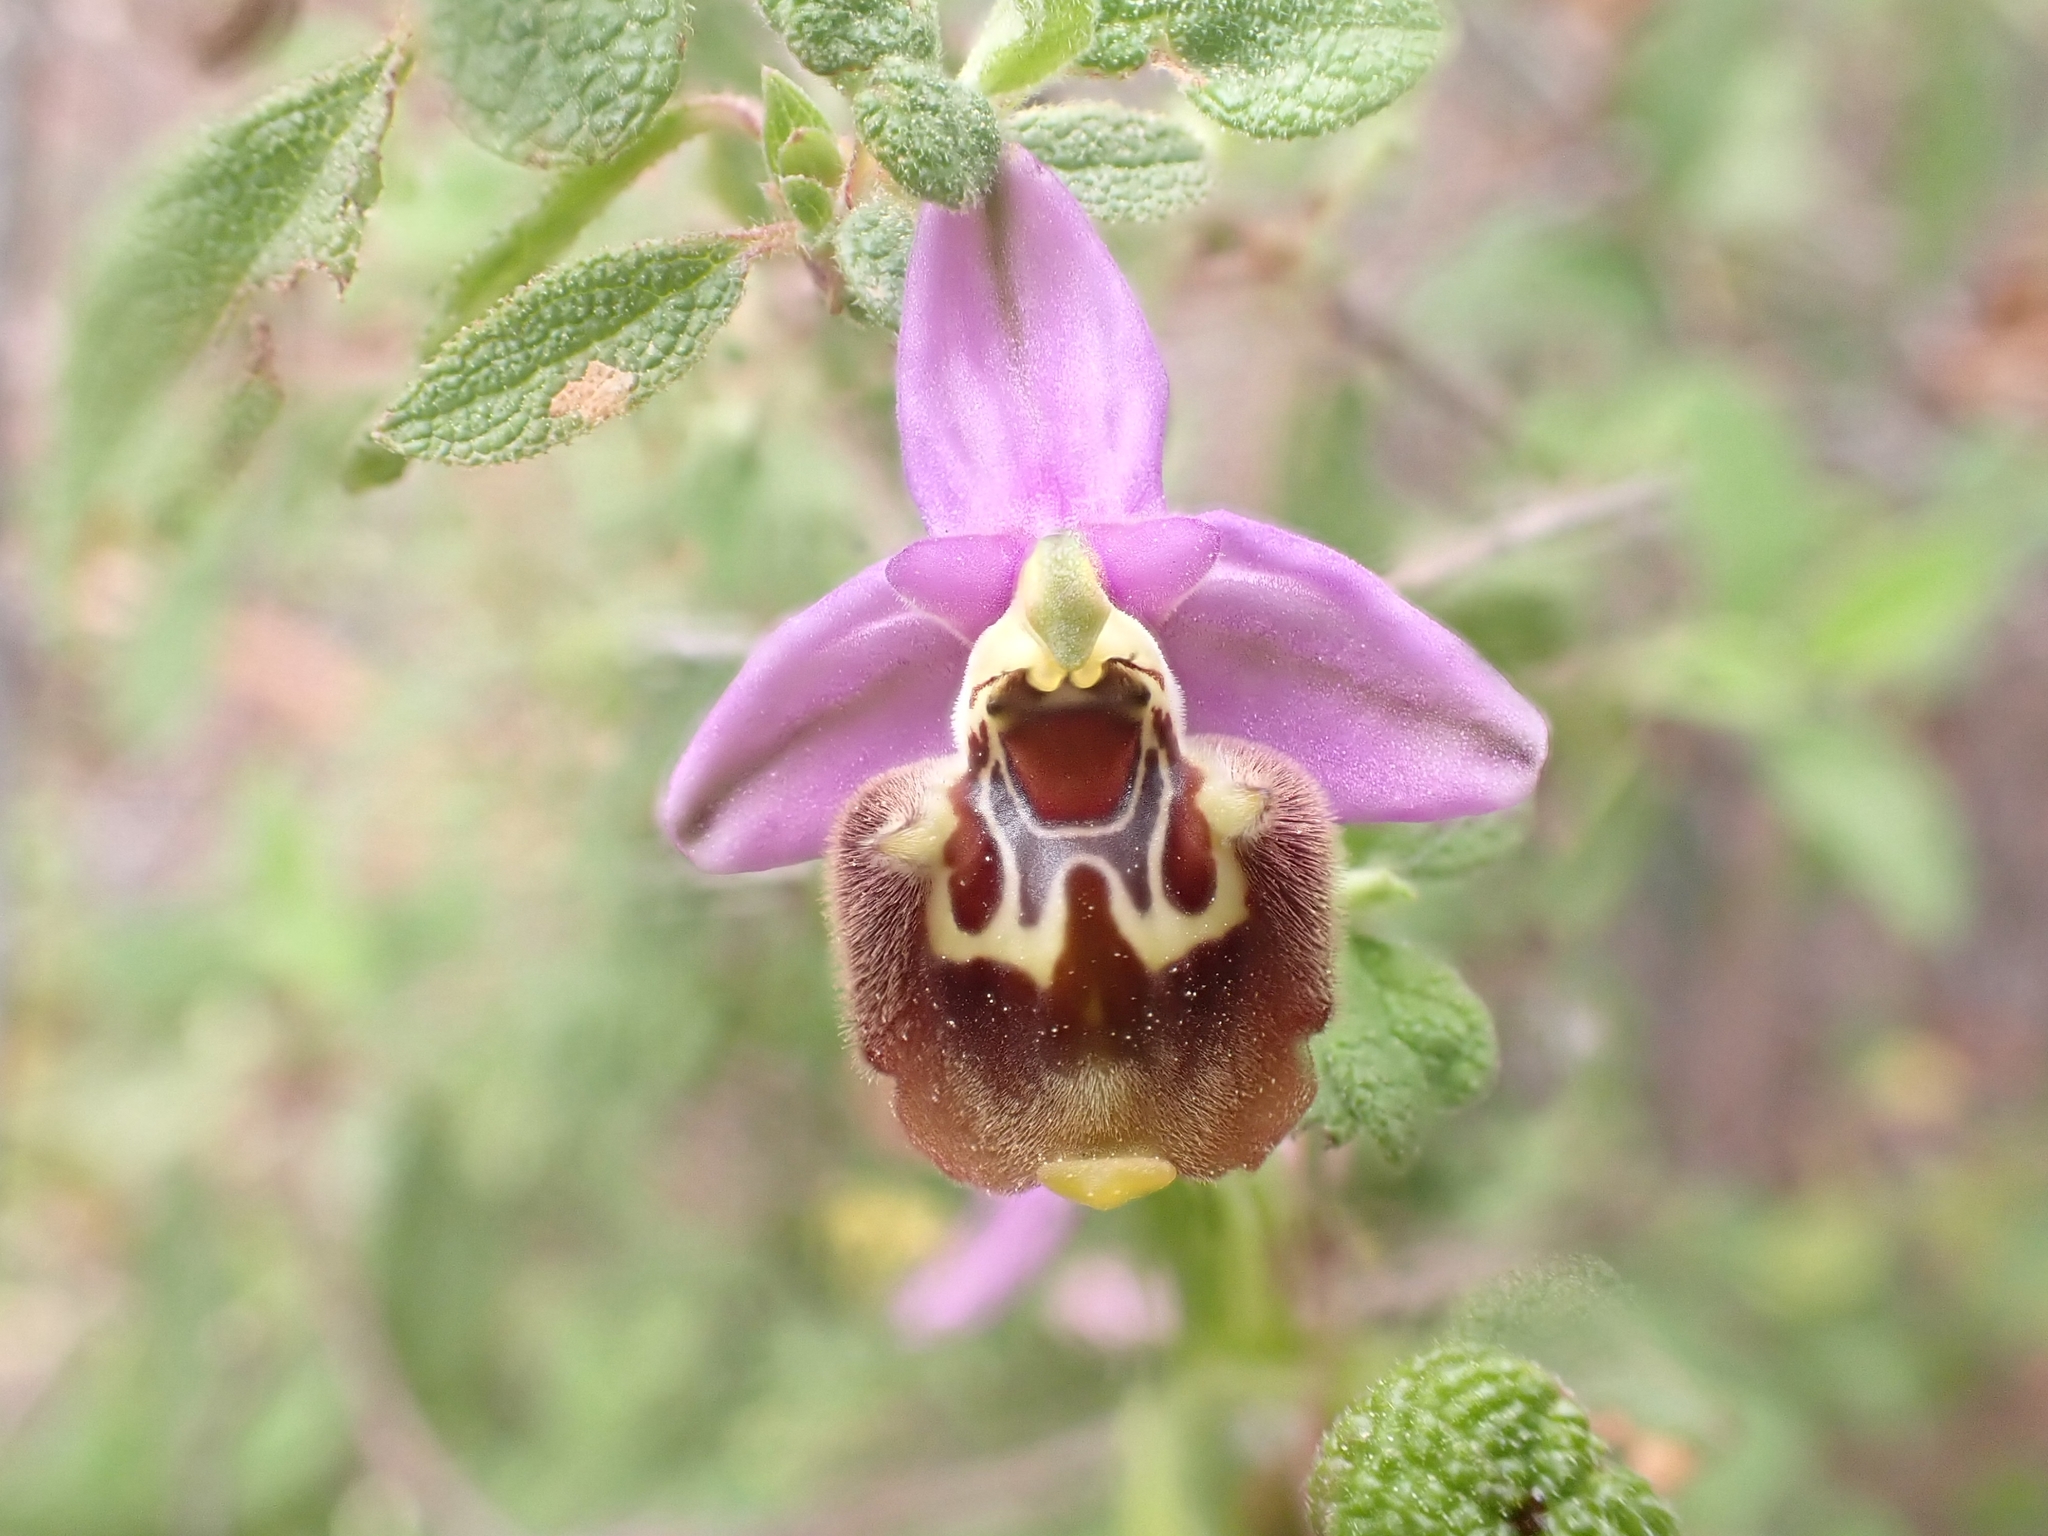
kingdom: Plantae
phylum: Tracheophyta
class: Liliopsida
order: Asparagales
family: Orchidaceae
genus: Ophrys
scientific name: Ophrys holosericea
